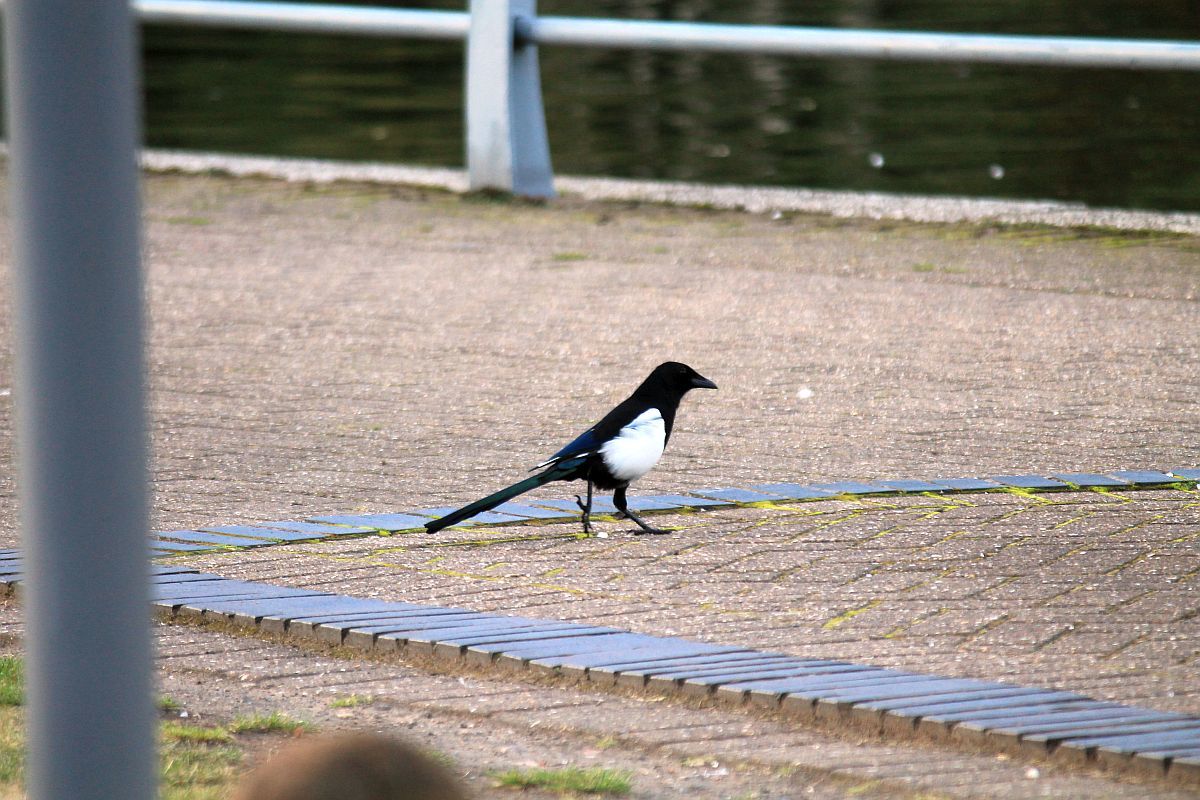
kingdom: Animalia
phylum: Chordata
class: Aves
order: Passeriformes
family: Corvidae
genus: Pica
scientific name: Pica pica
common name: Eurasian magpie
